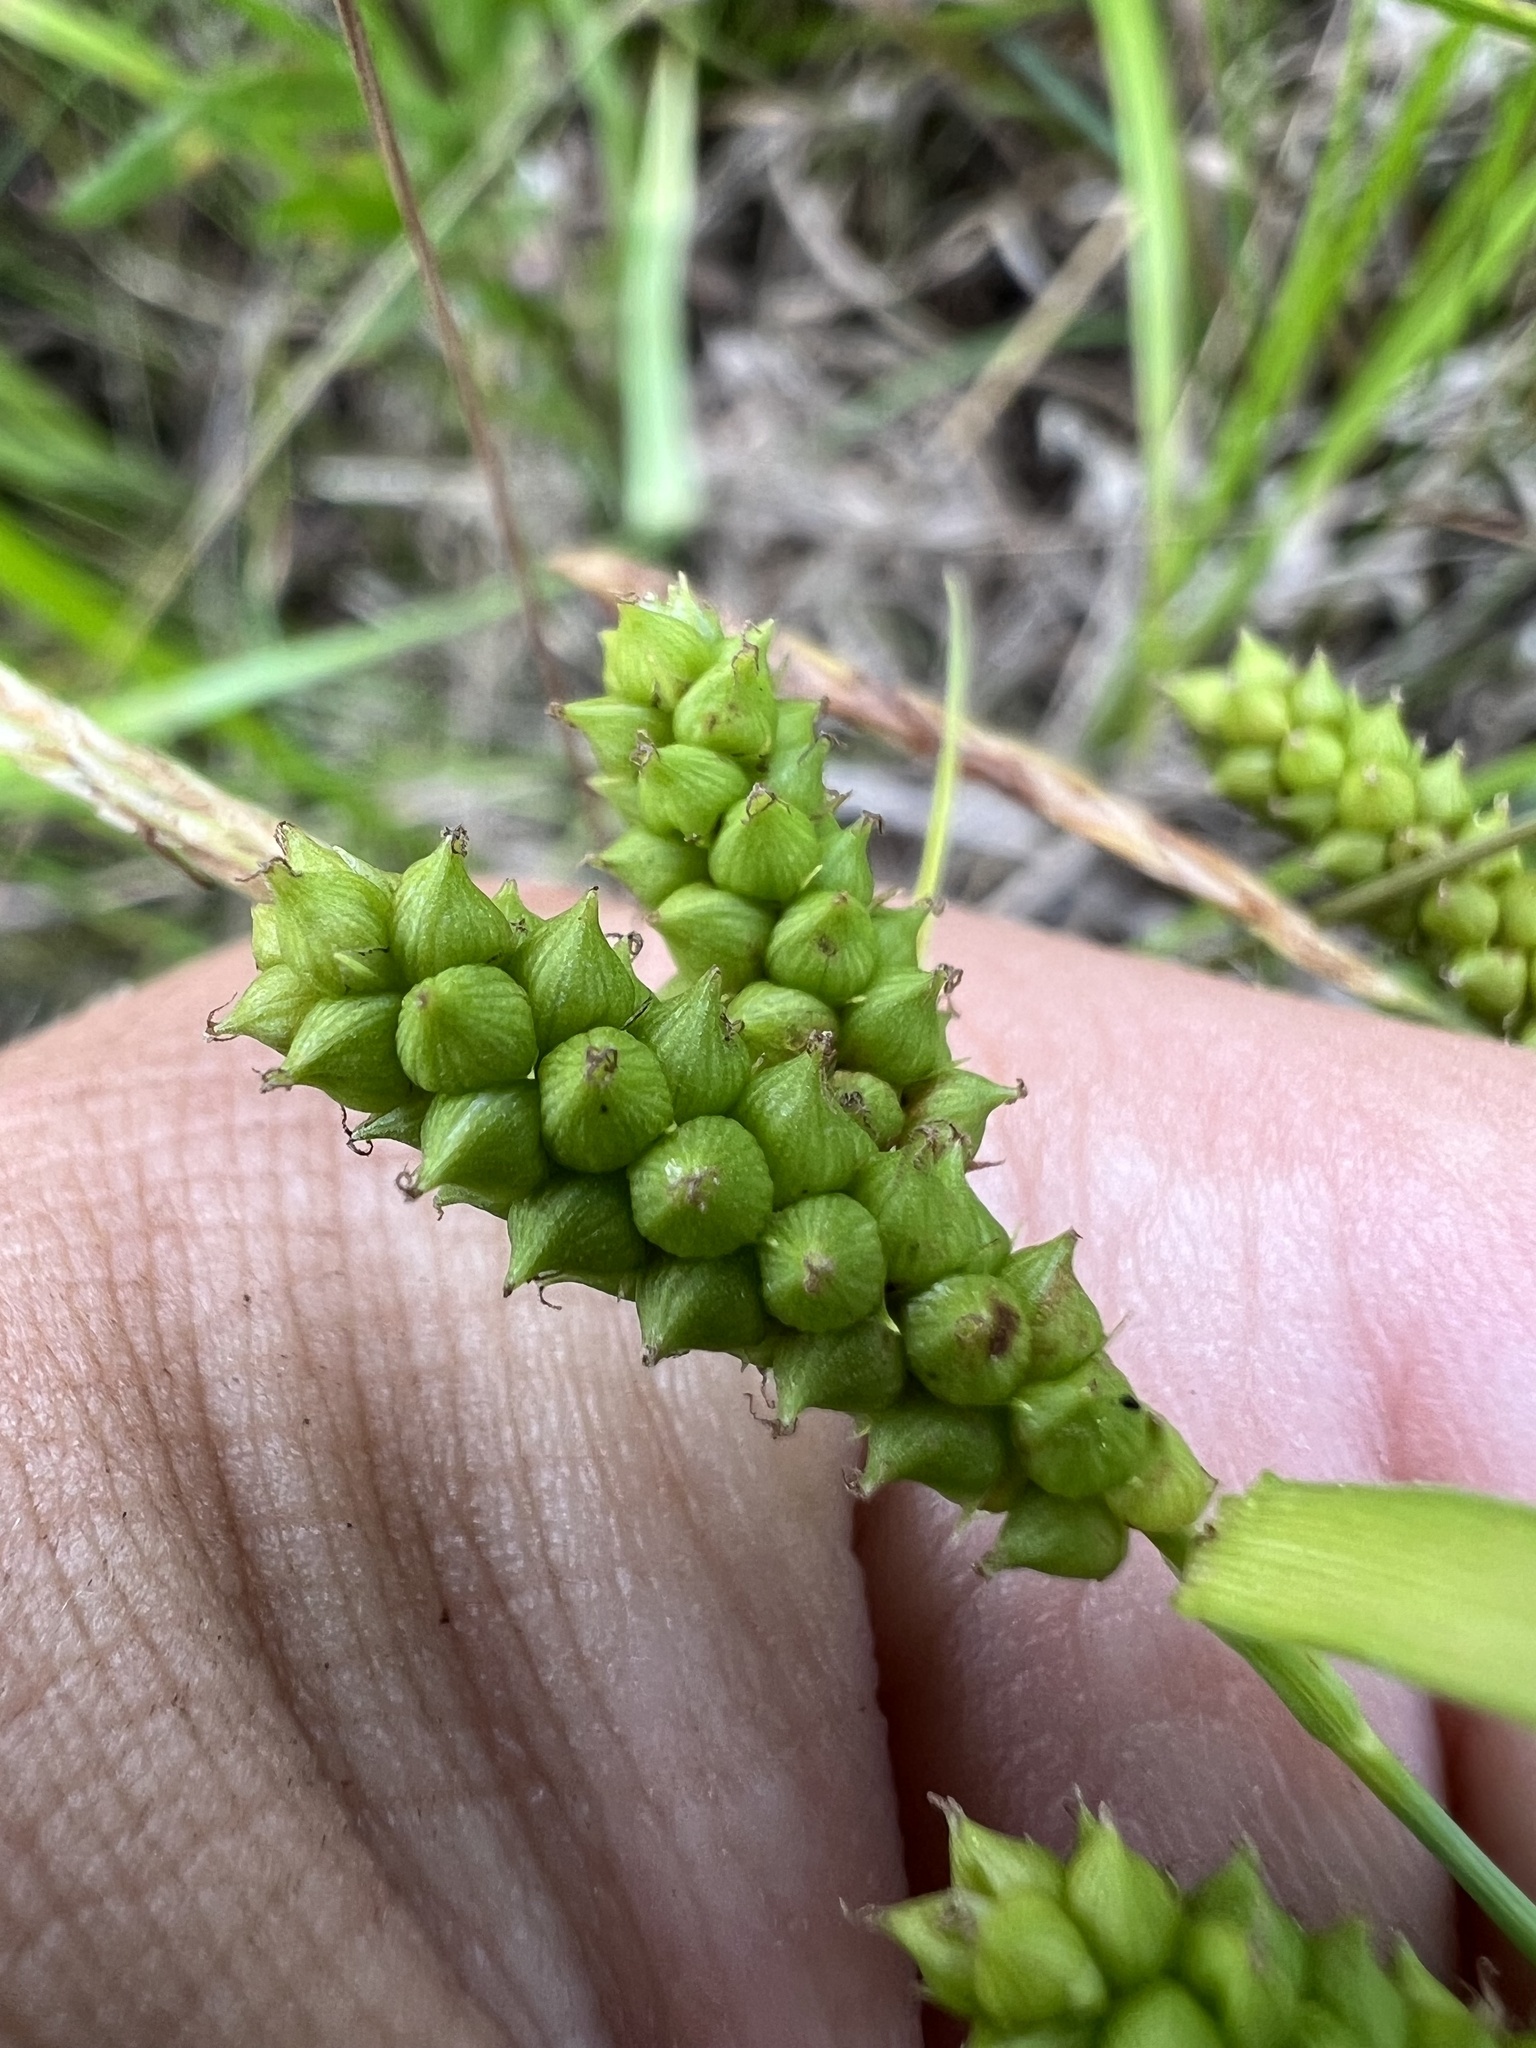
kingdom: Plantae
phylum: Tracheophyta
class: Liliopsida
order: Poales
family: Cyperaceae
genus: Carex
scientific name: Carex granularis
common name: Granular sedge
